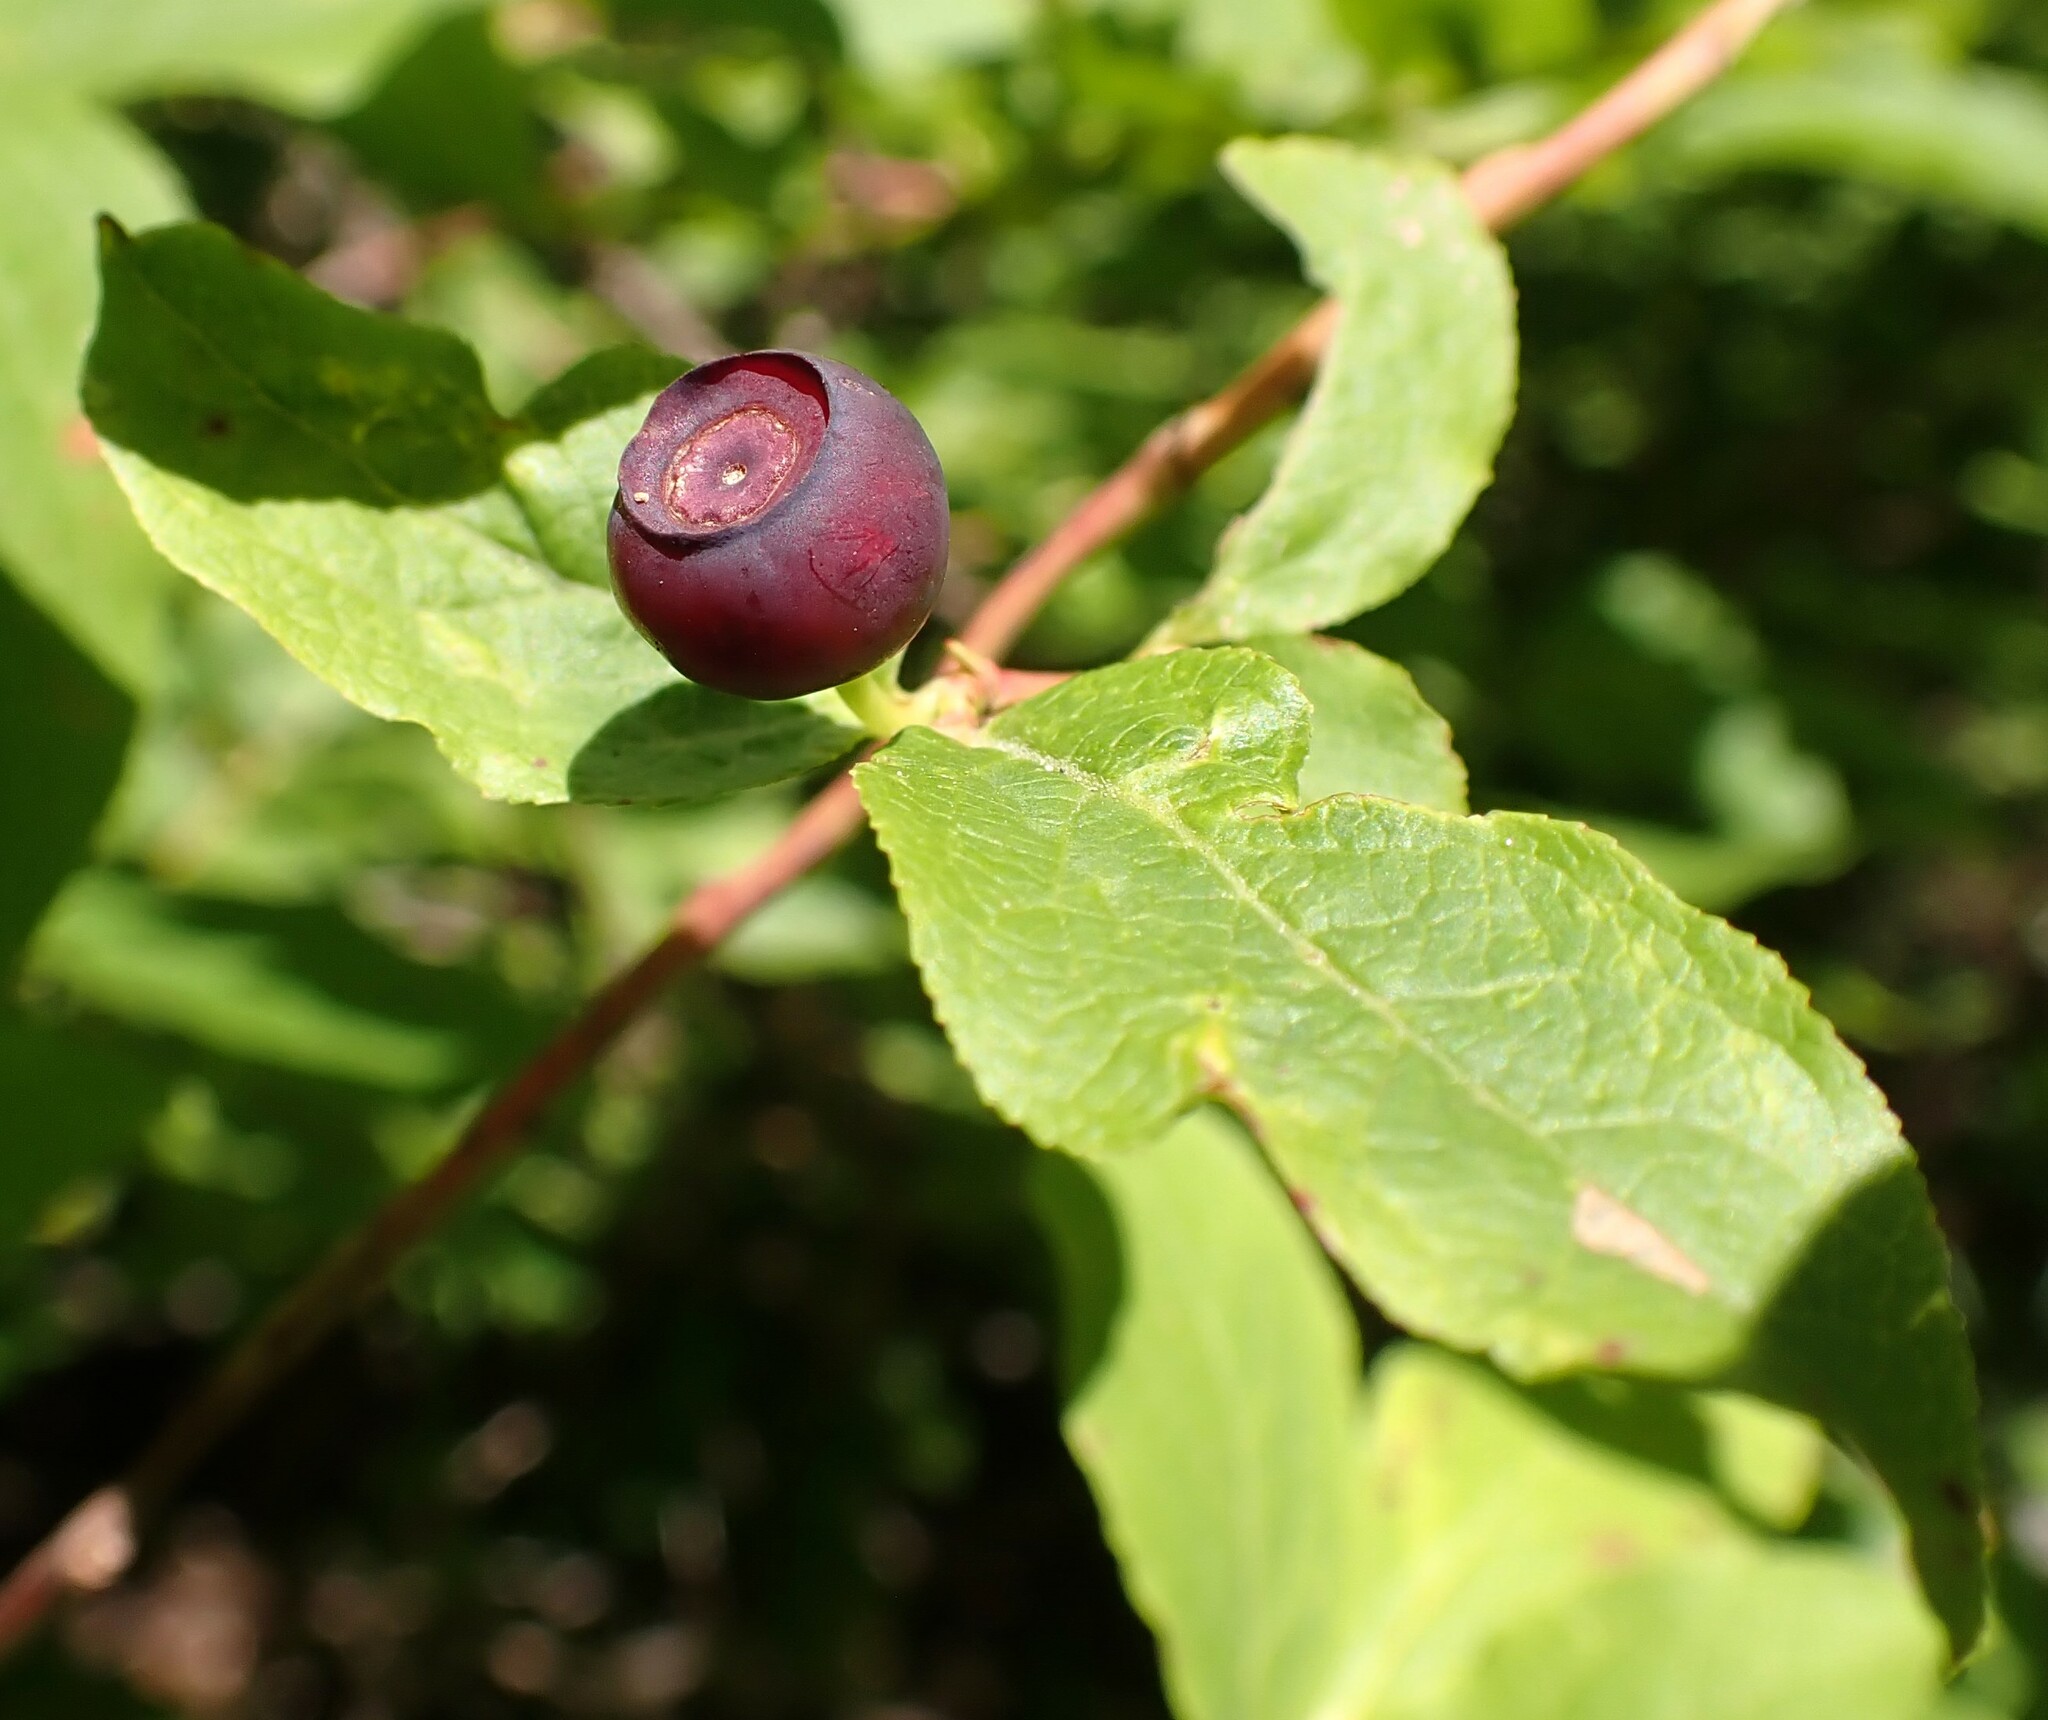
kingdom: Plantae
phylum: Tracheophyta
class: Magnoliopsida
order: Ericales
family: Ericaceae
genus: Vaccinium
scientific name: Vaccinium membranaceum
